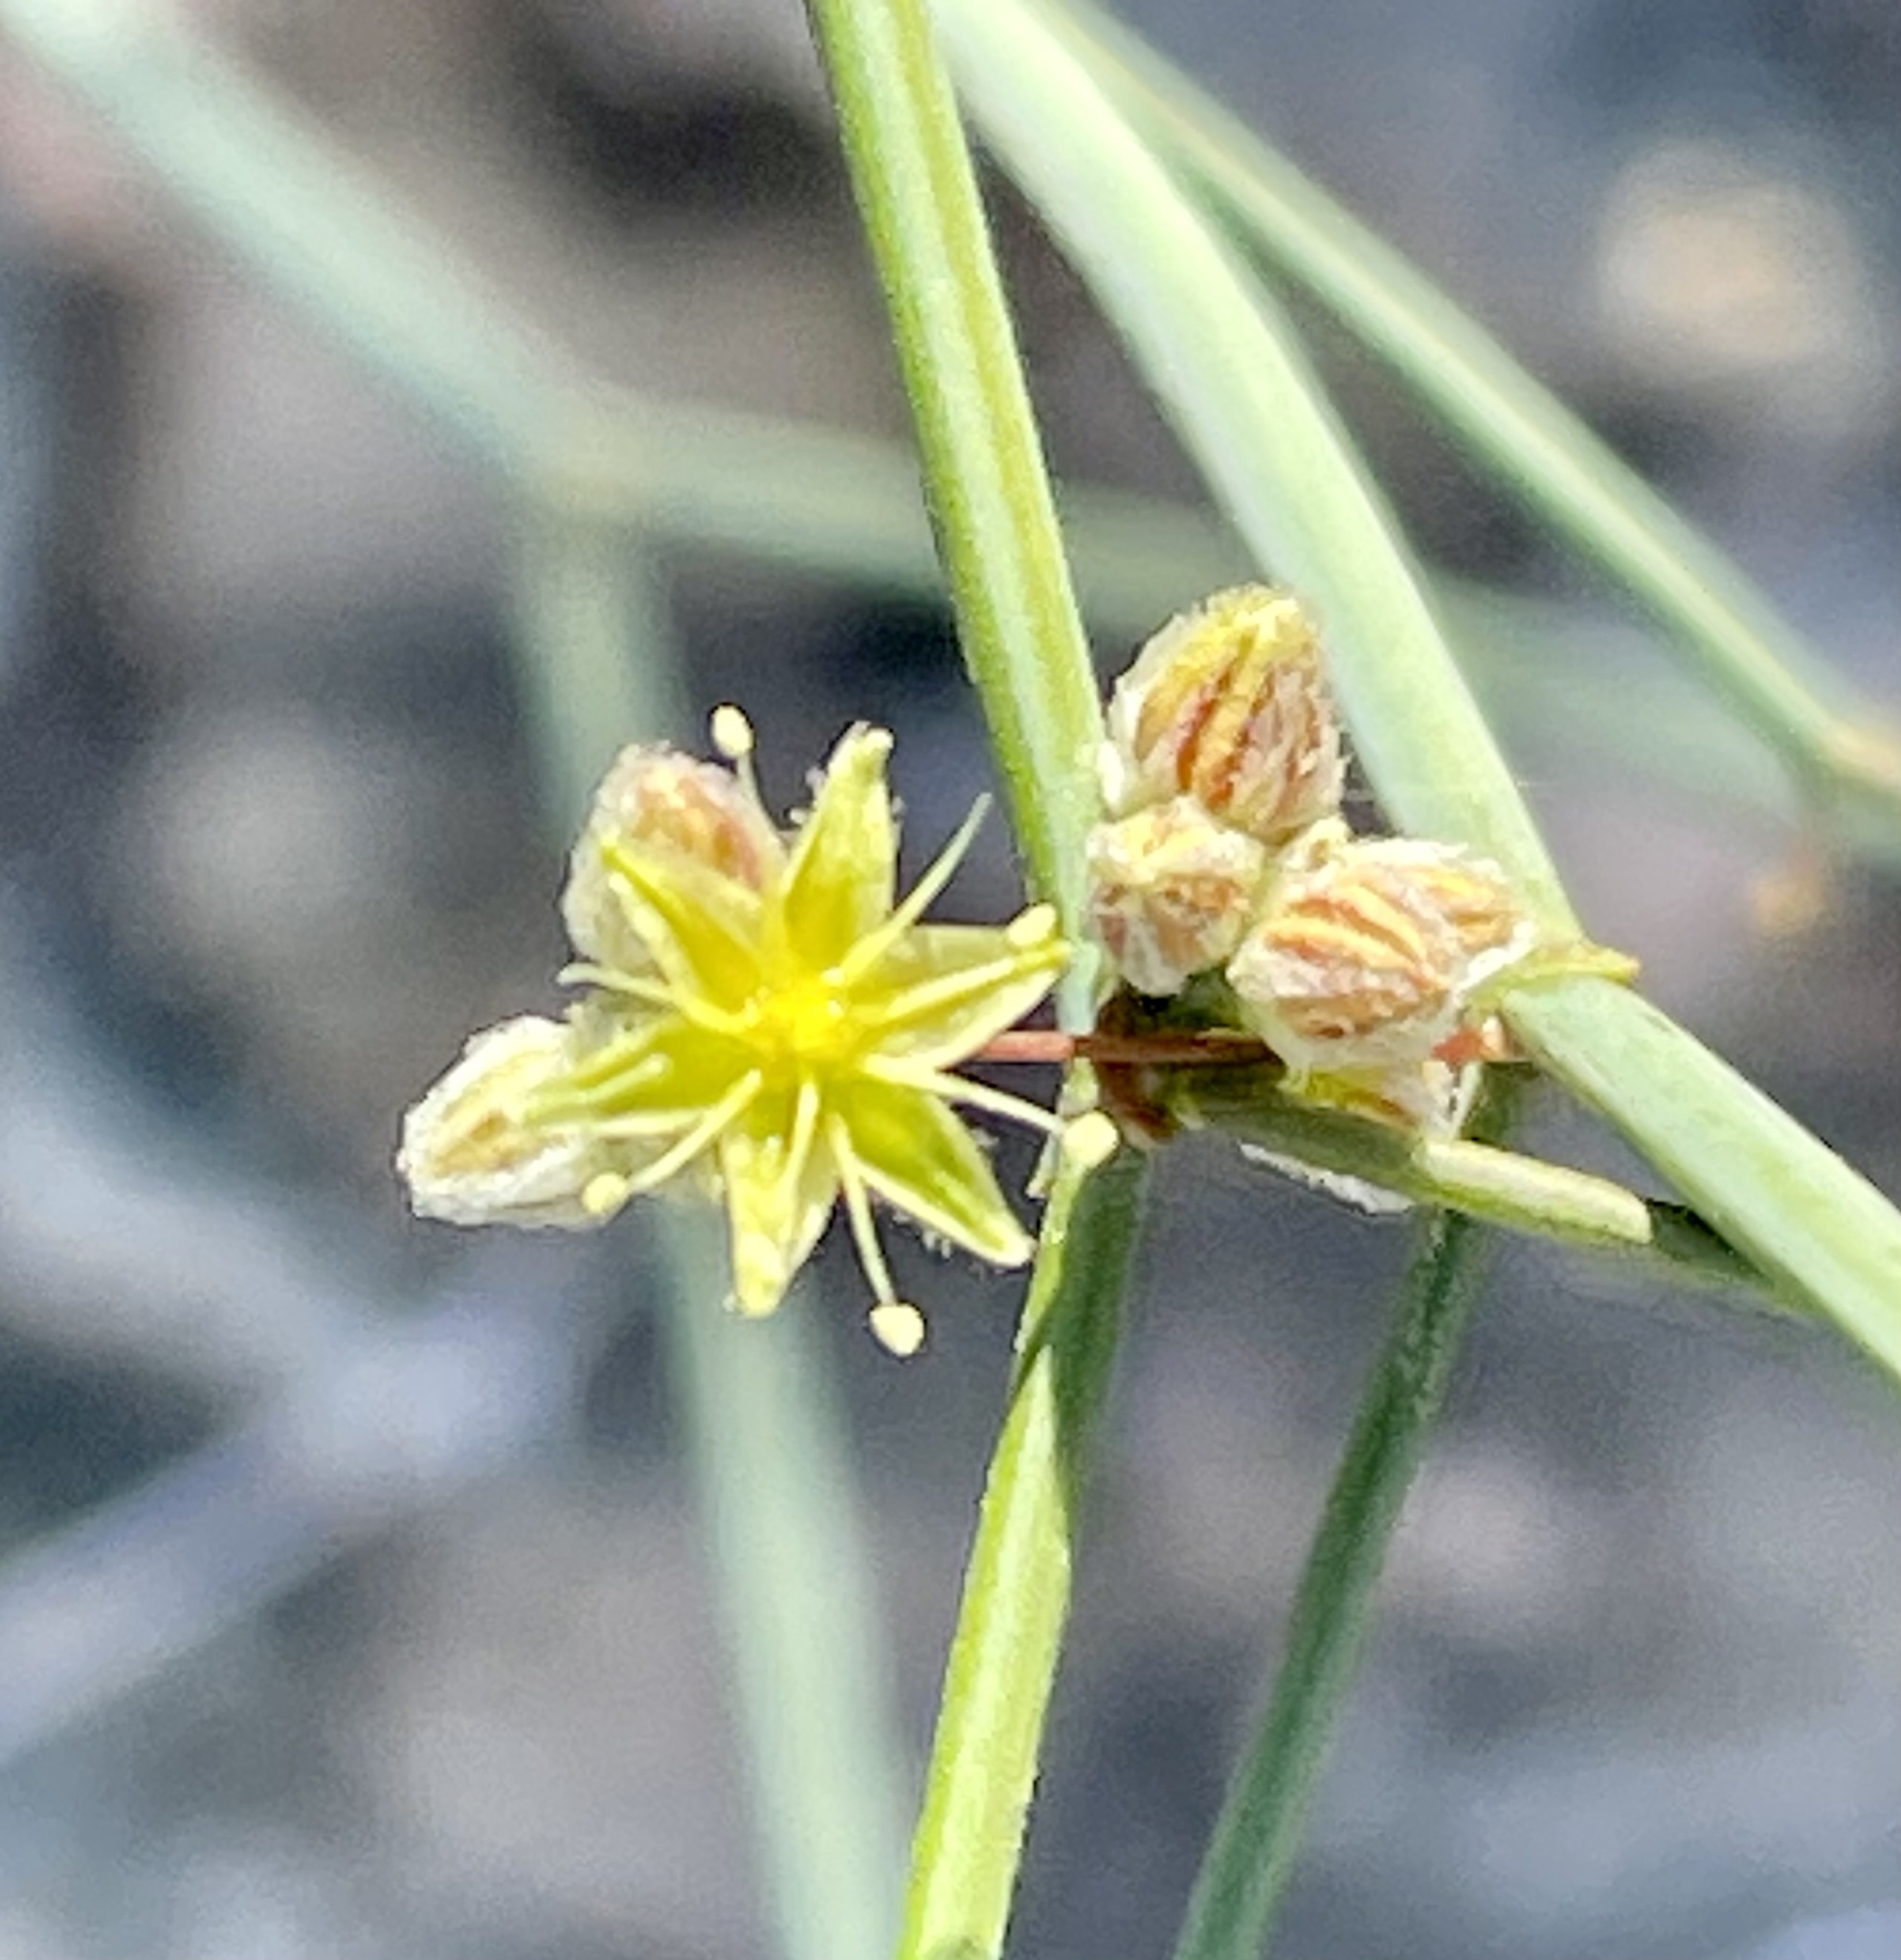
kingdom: Plantae
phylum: Tracheophyta
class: Magnoliopsida
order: Caryophyllales
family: Polygonaceae
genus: Eriogonum
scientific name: Eriogonum inflatum
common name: Desert trumpet
